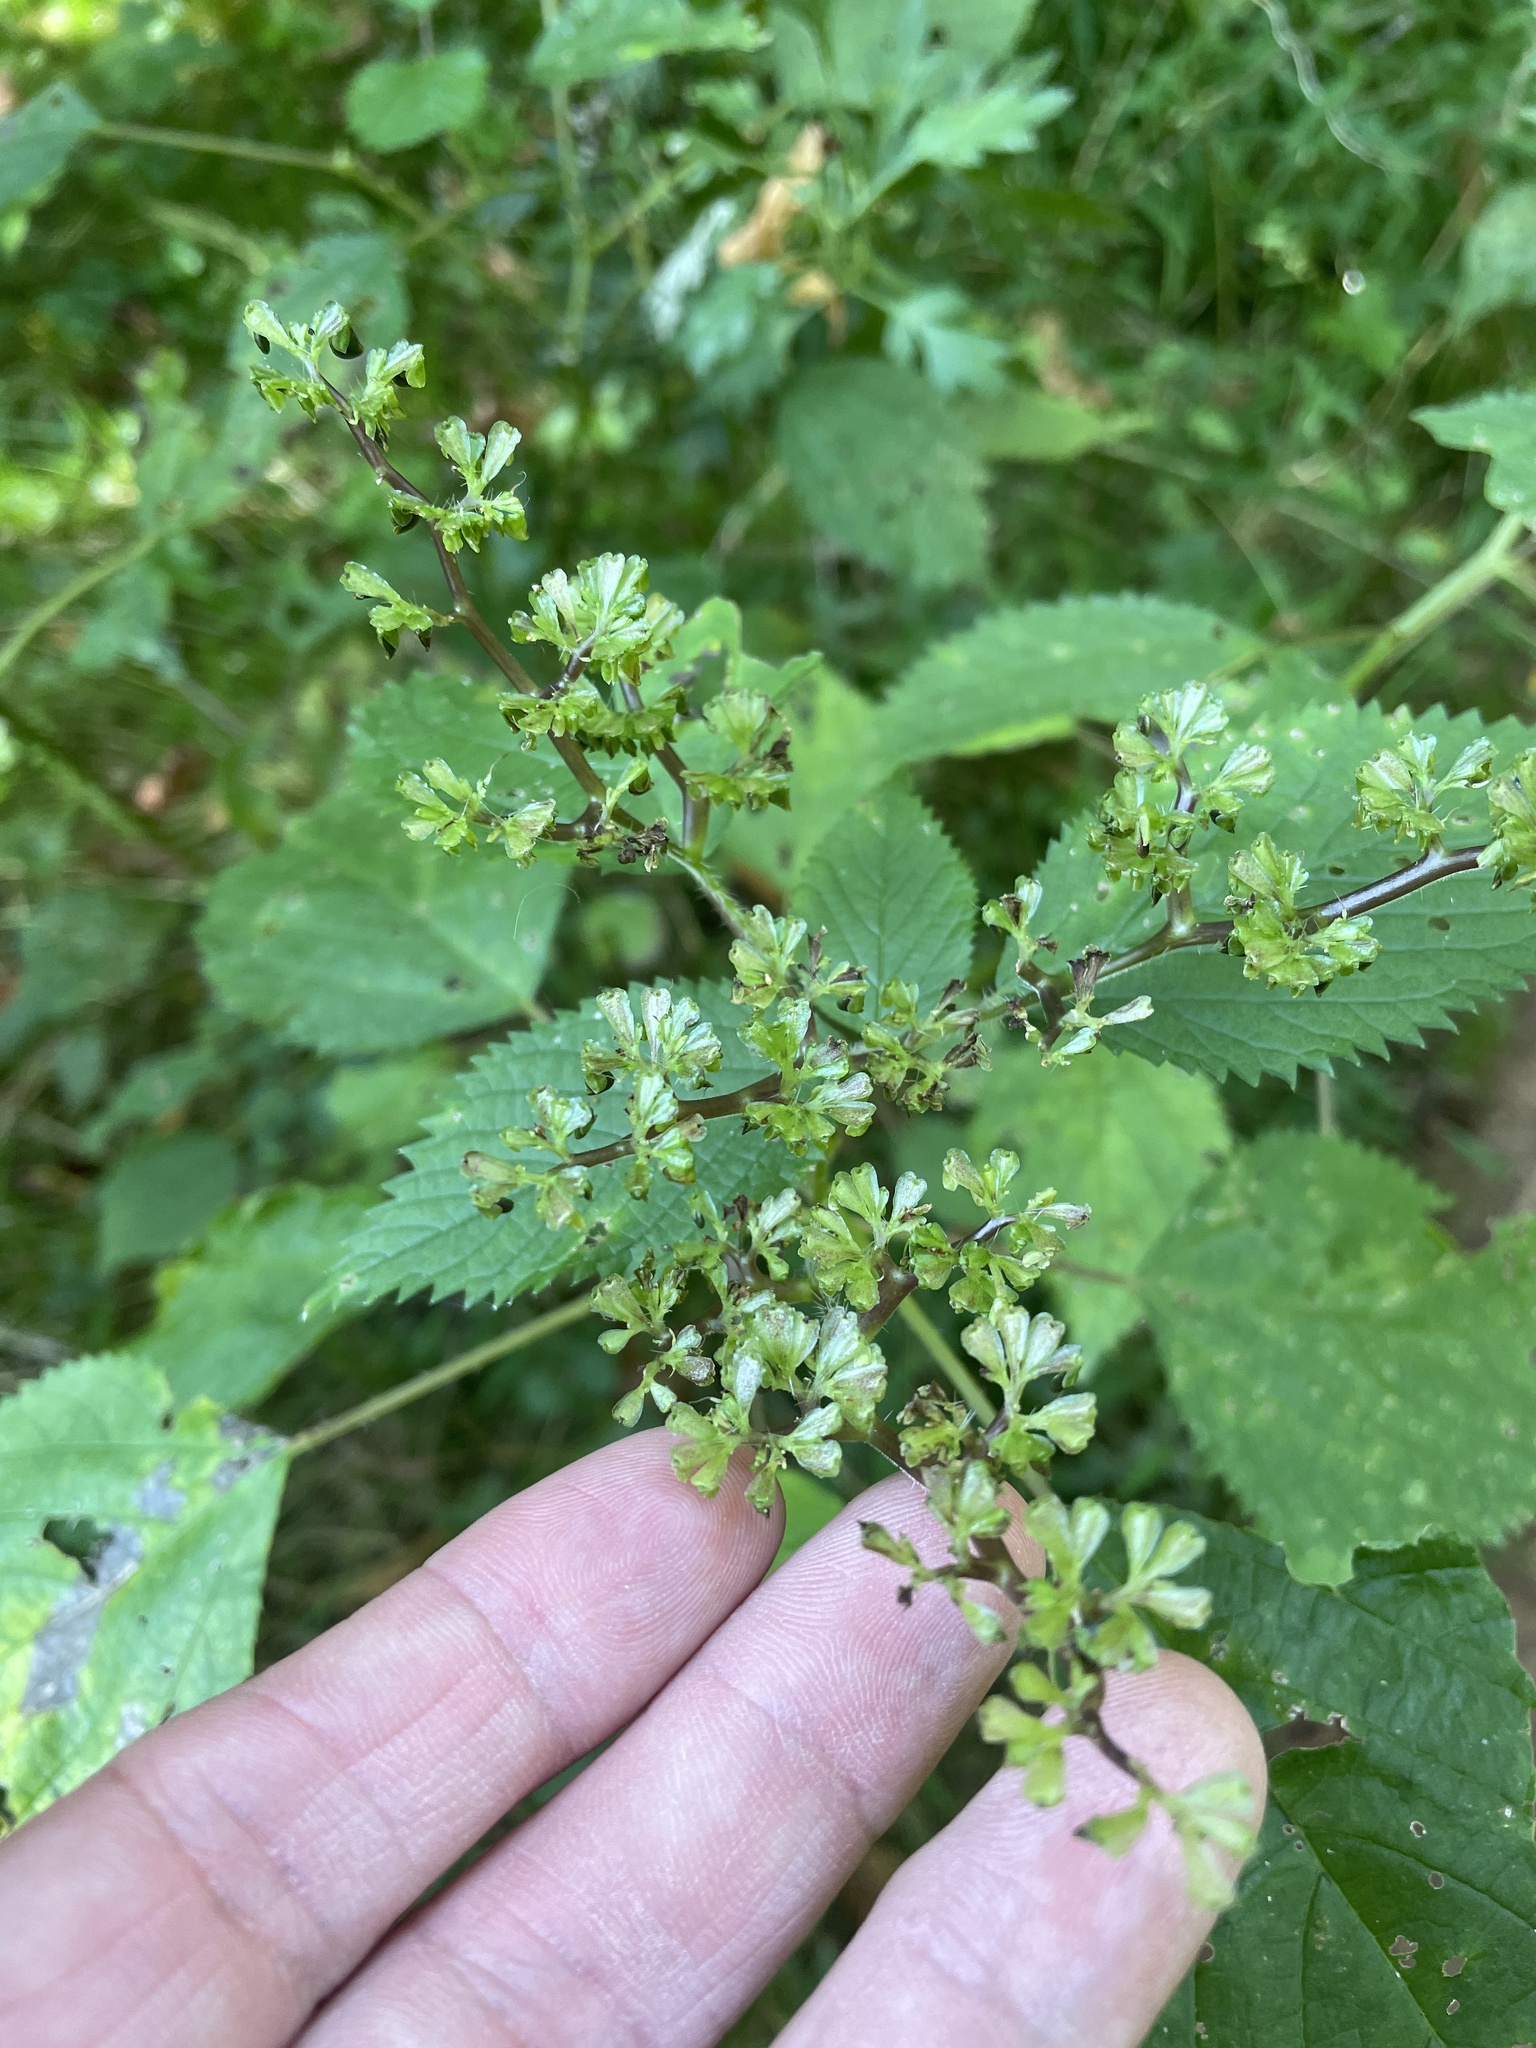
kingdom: Plantae
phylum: Tracheophyta
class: Magnoliopsida
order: Rosales
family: Urticaceae
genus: Laportea
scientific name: Laportea canadensis
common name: Canada nettle
